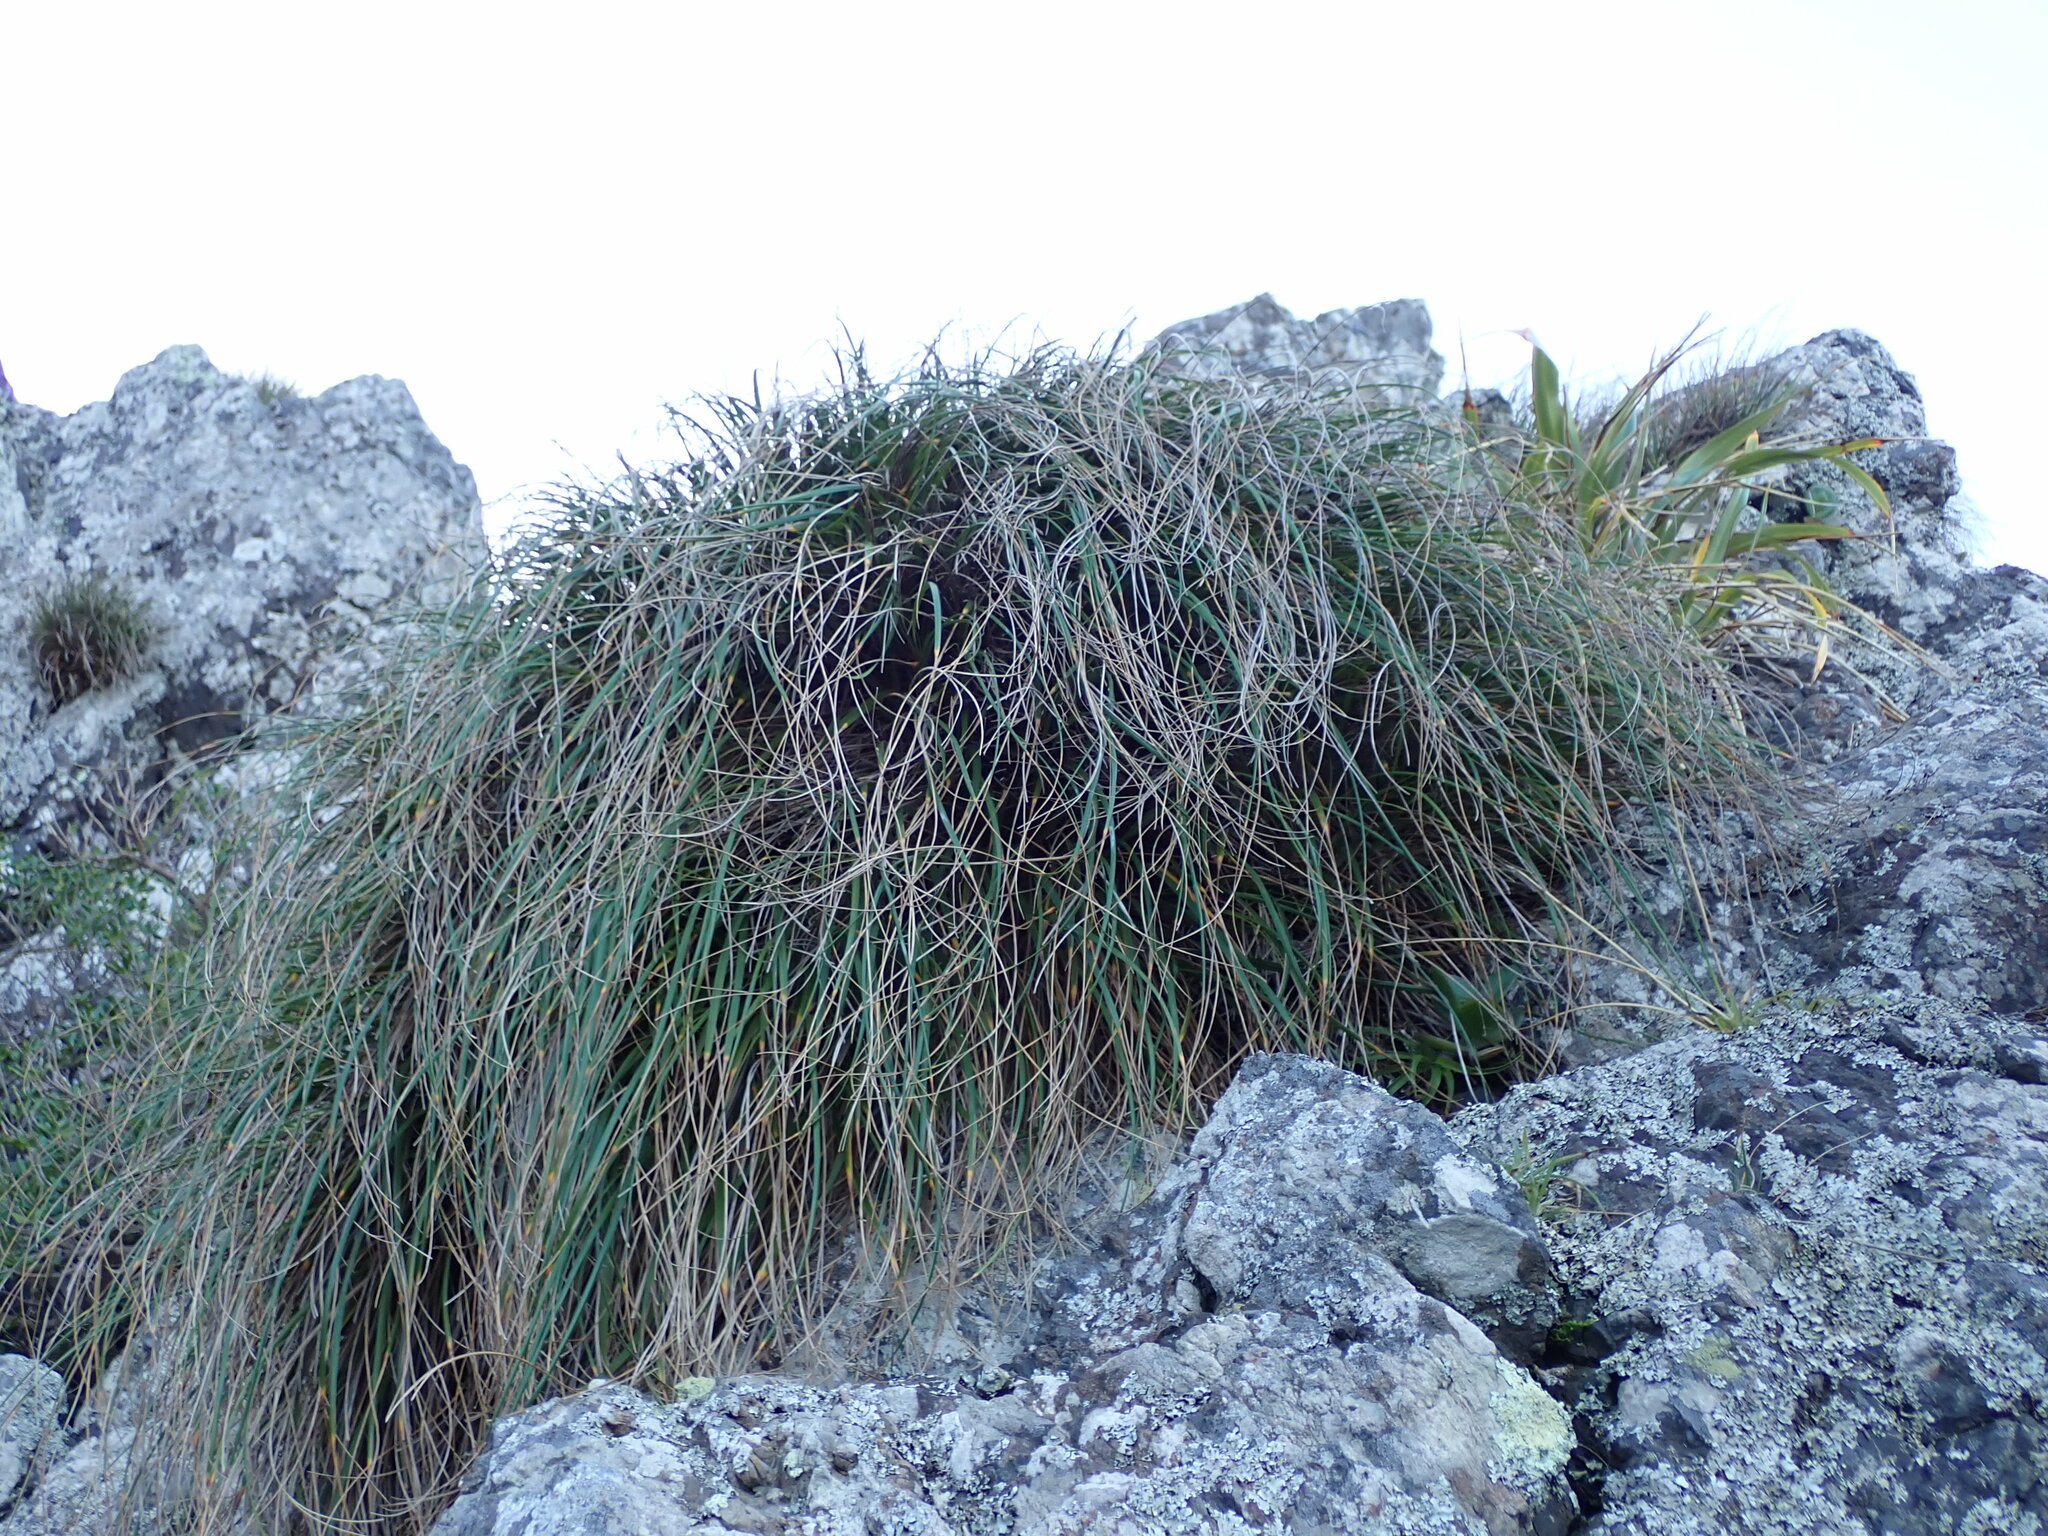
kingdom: Plantae
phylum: Tracheophyta
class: Liliopsida
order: Poales
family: Poaceae
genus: Chionochloa
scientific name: Chionochloa beddiei
